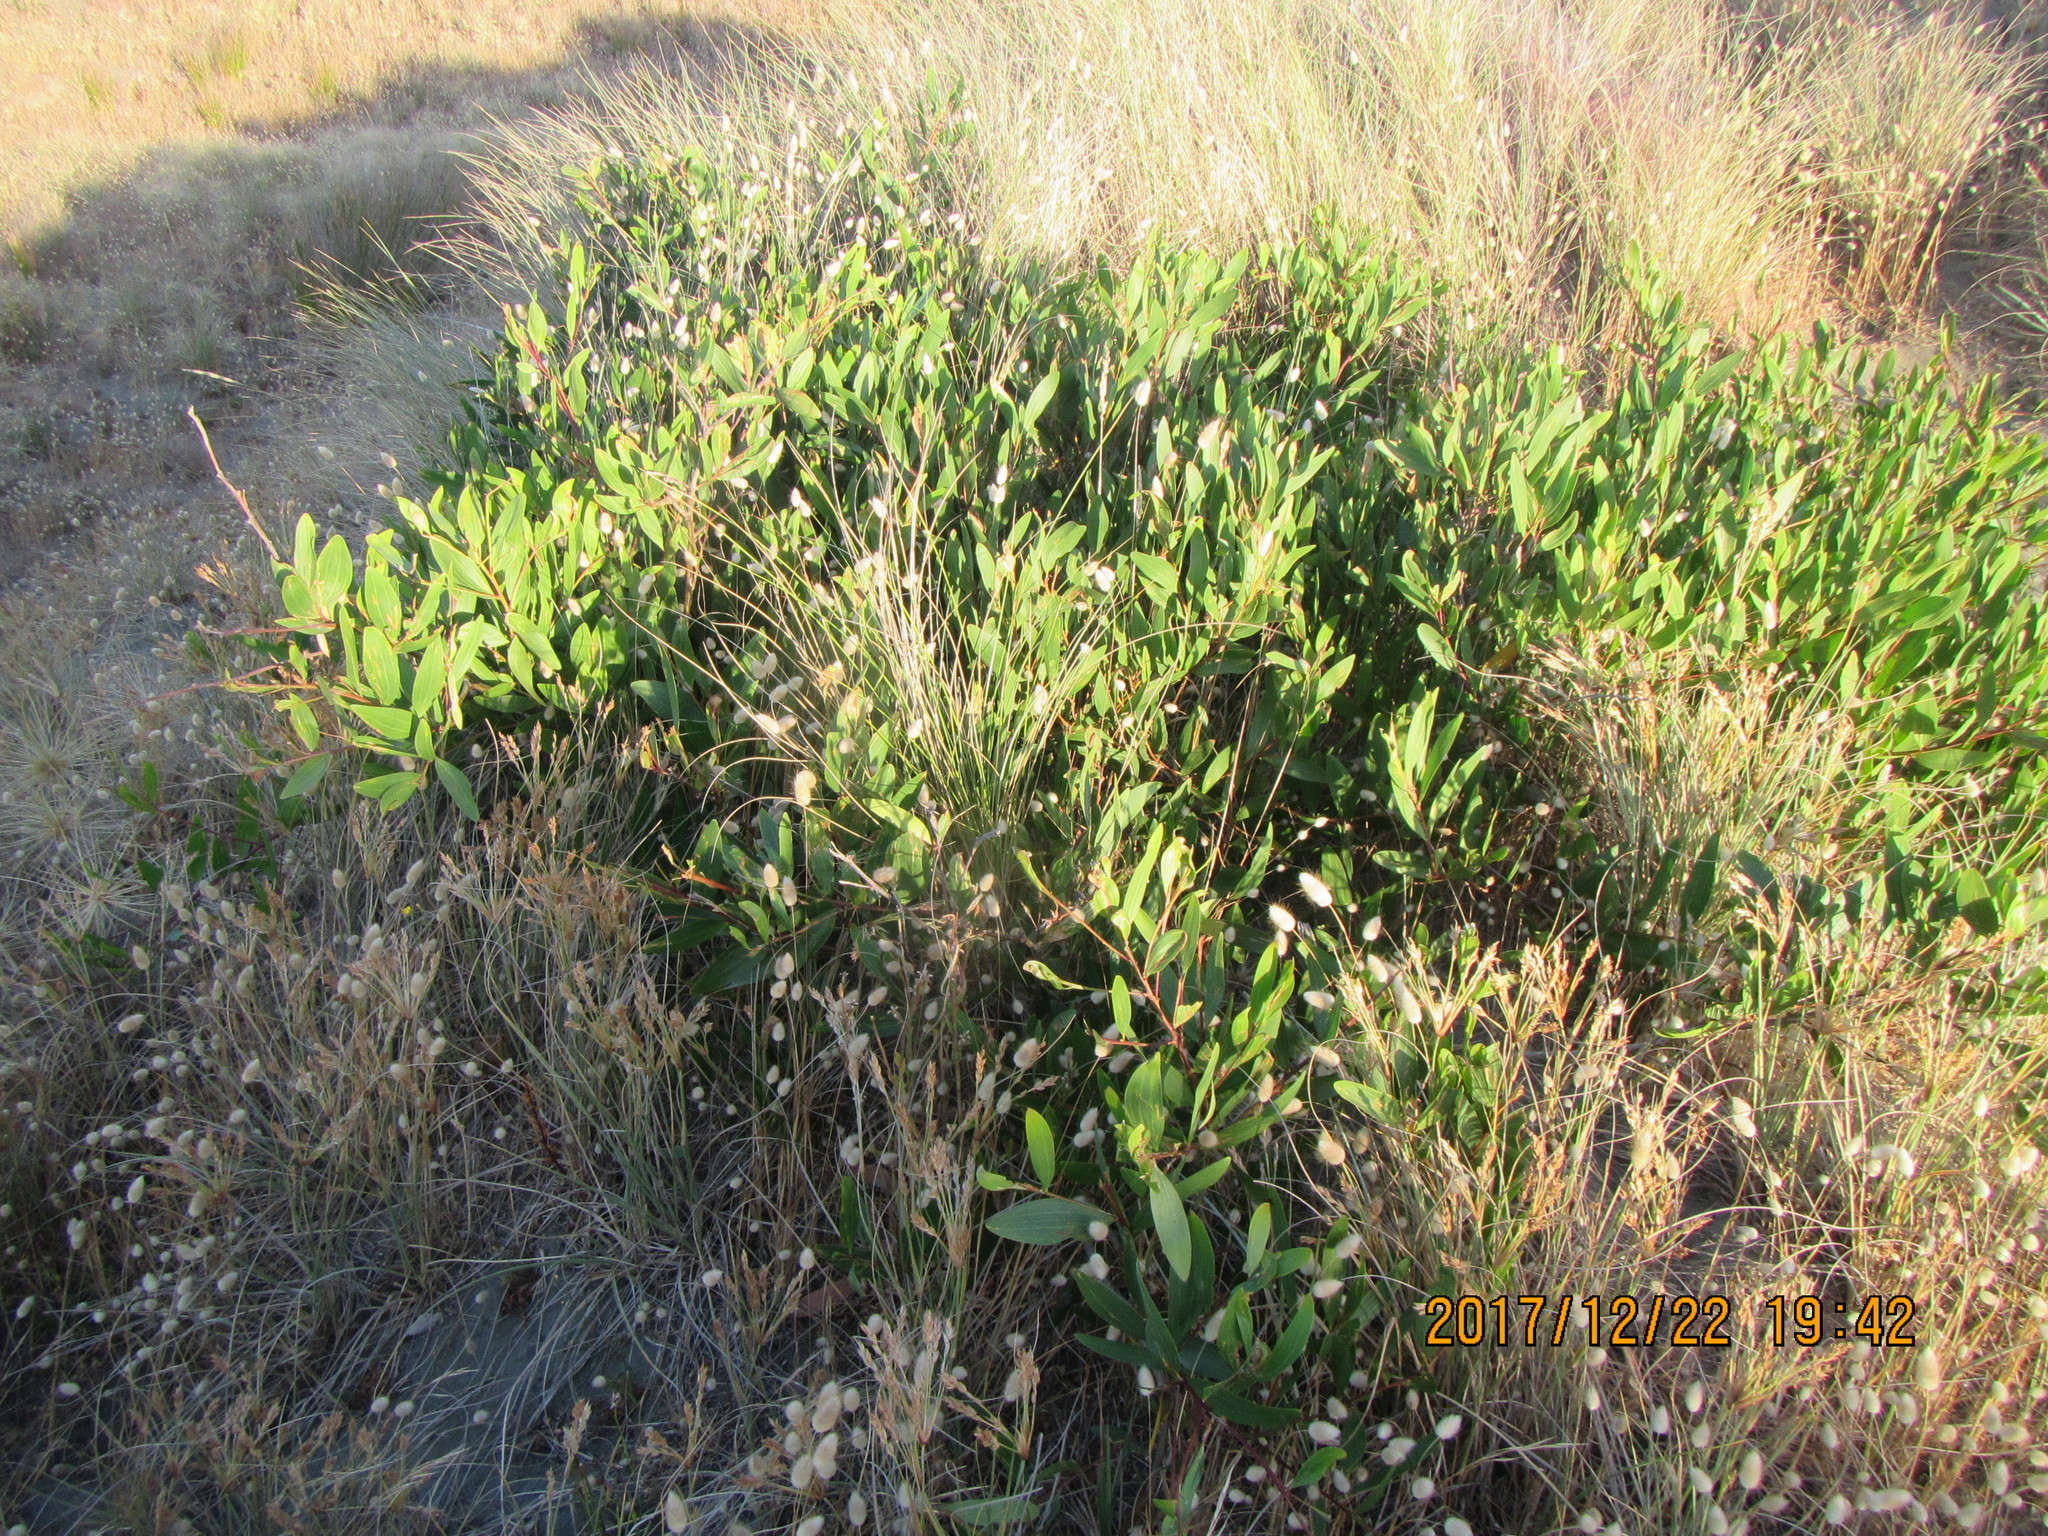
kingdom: Plantae
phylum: Tracheophyta
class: Magnoliopsida
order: Fabales
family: Fabaceae
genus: Acacia
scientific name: Acacia longifolia
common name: Sydney golden wattle
